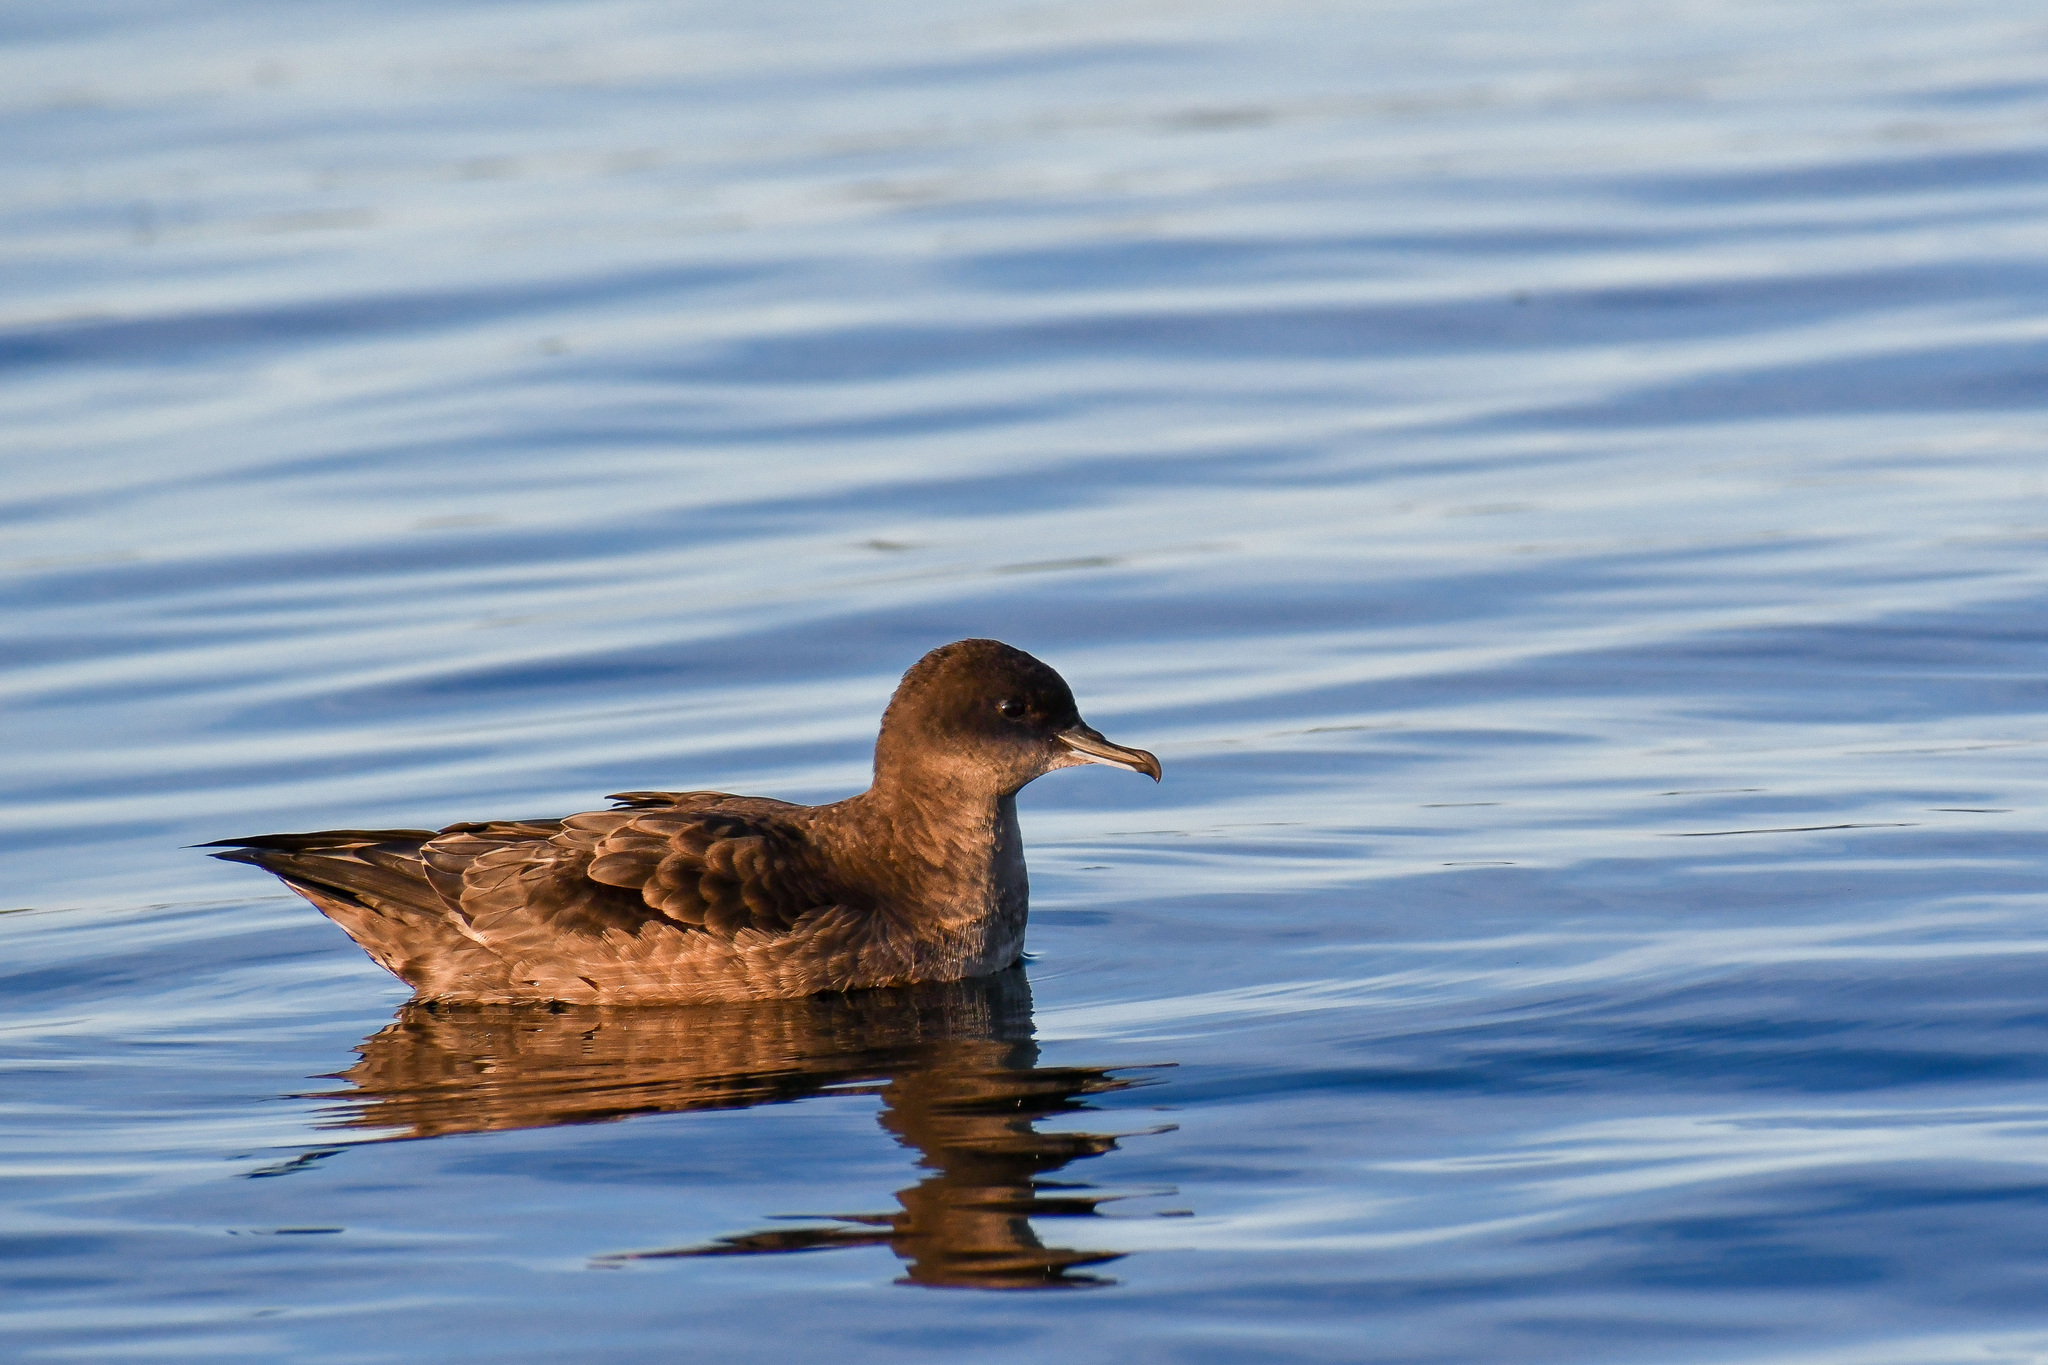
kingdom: Animalia
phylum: Chordata
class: Aves
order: Procellariiformes
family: Procellariidae
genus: Puffinus
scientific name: Puffinus tenuirostris
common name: Short-tailed shearwater
